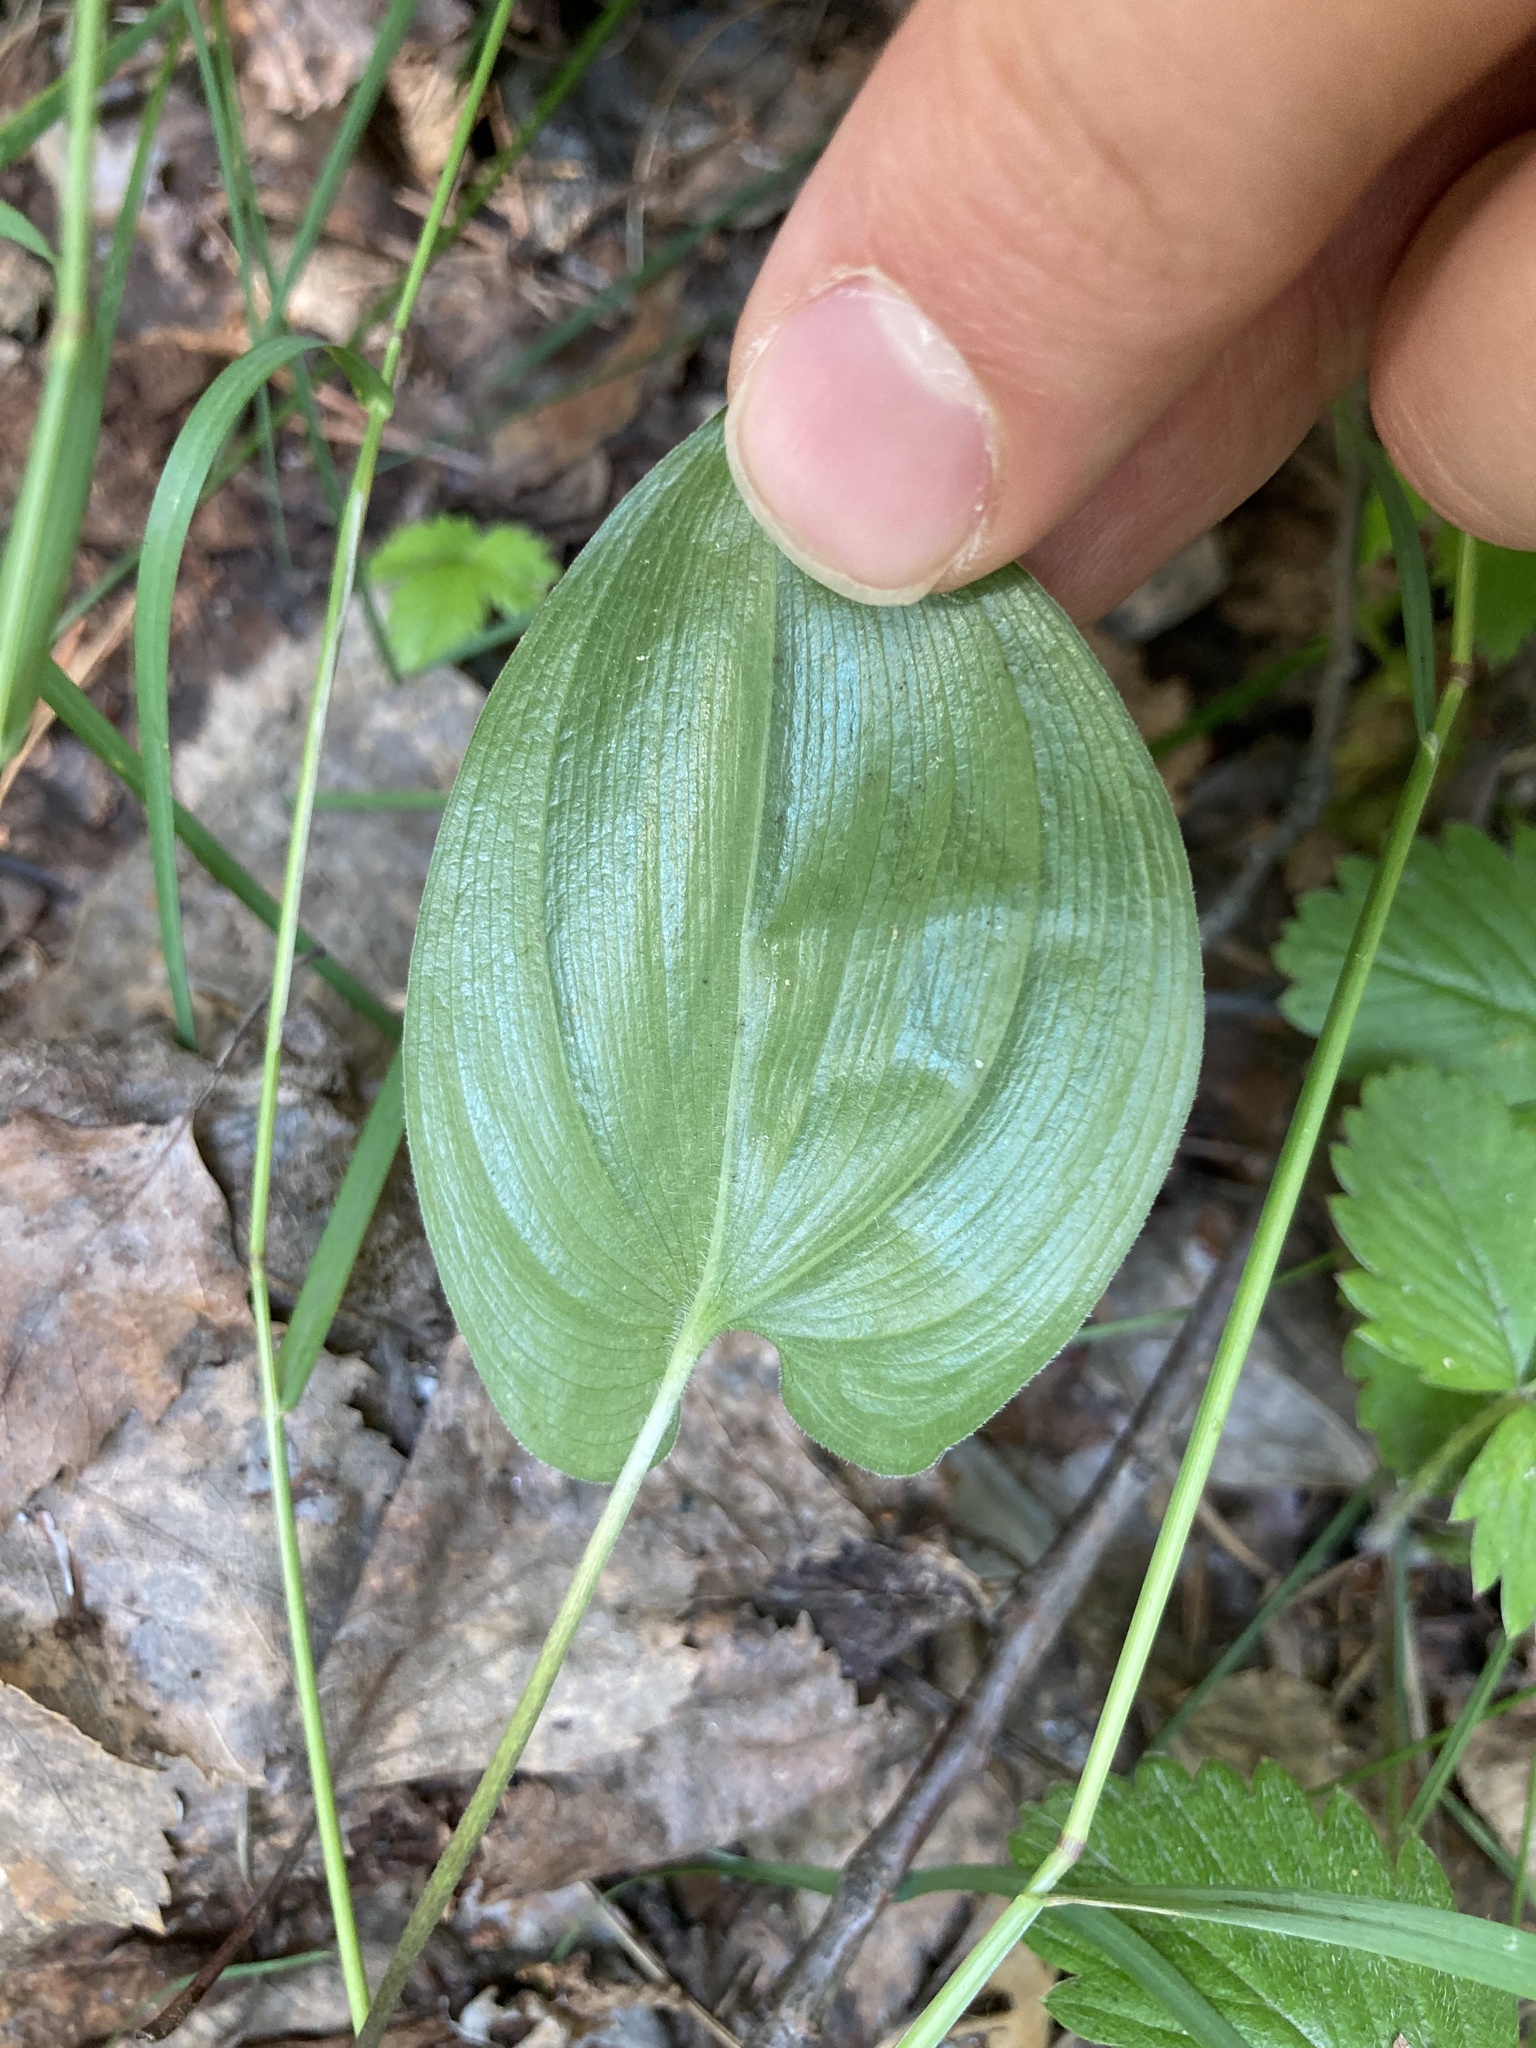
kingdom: Plantae
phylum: Tracheophyta
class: Liliopsida
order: Asparagales
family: Asparagaceae
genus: Maianthemum
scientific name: Maianthemum bifolium
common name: May lily
